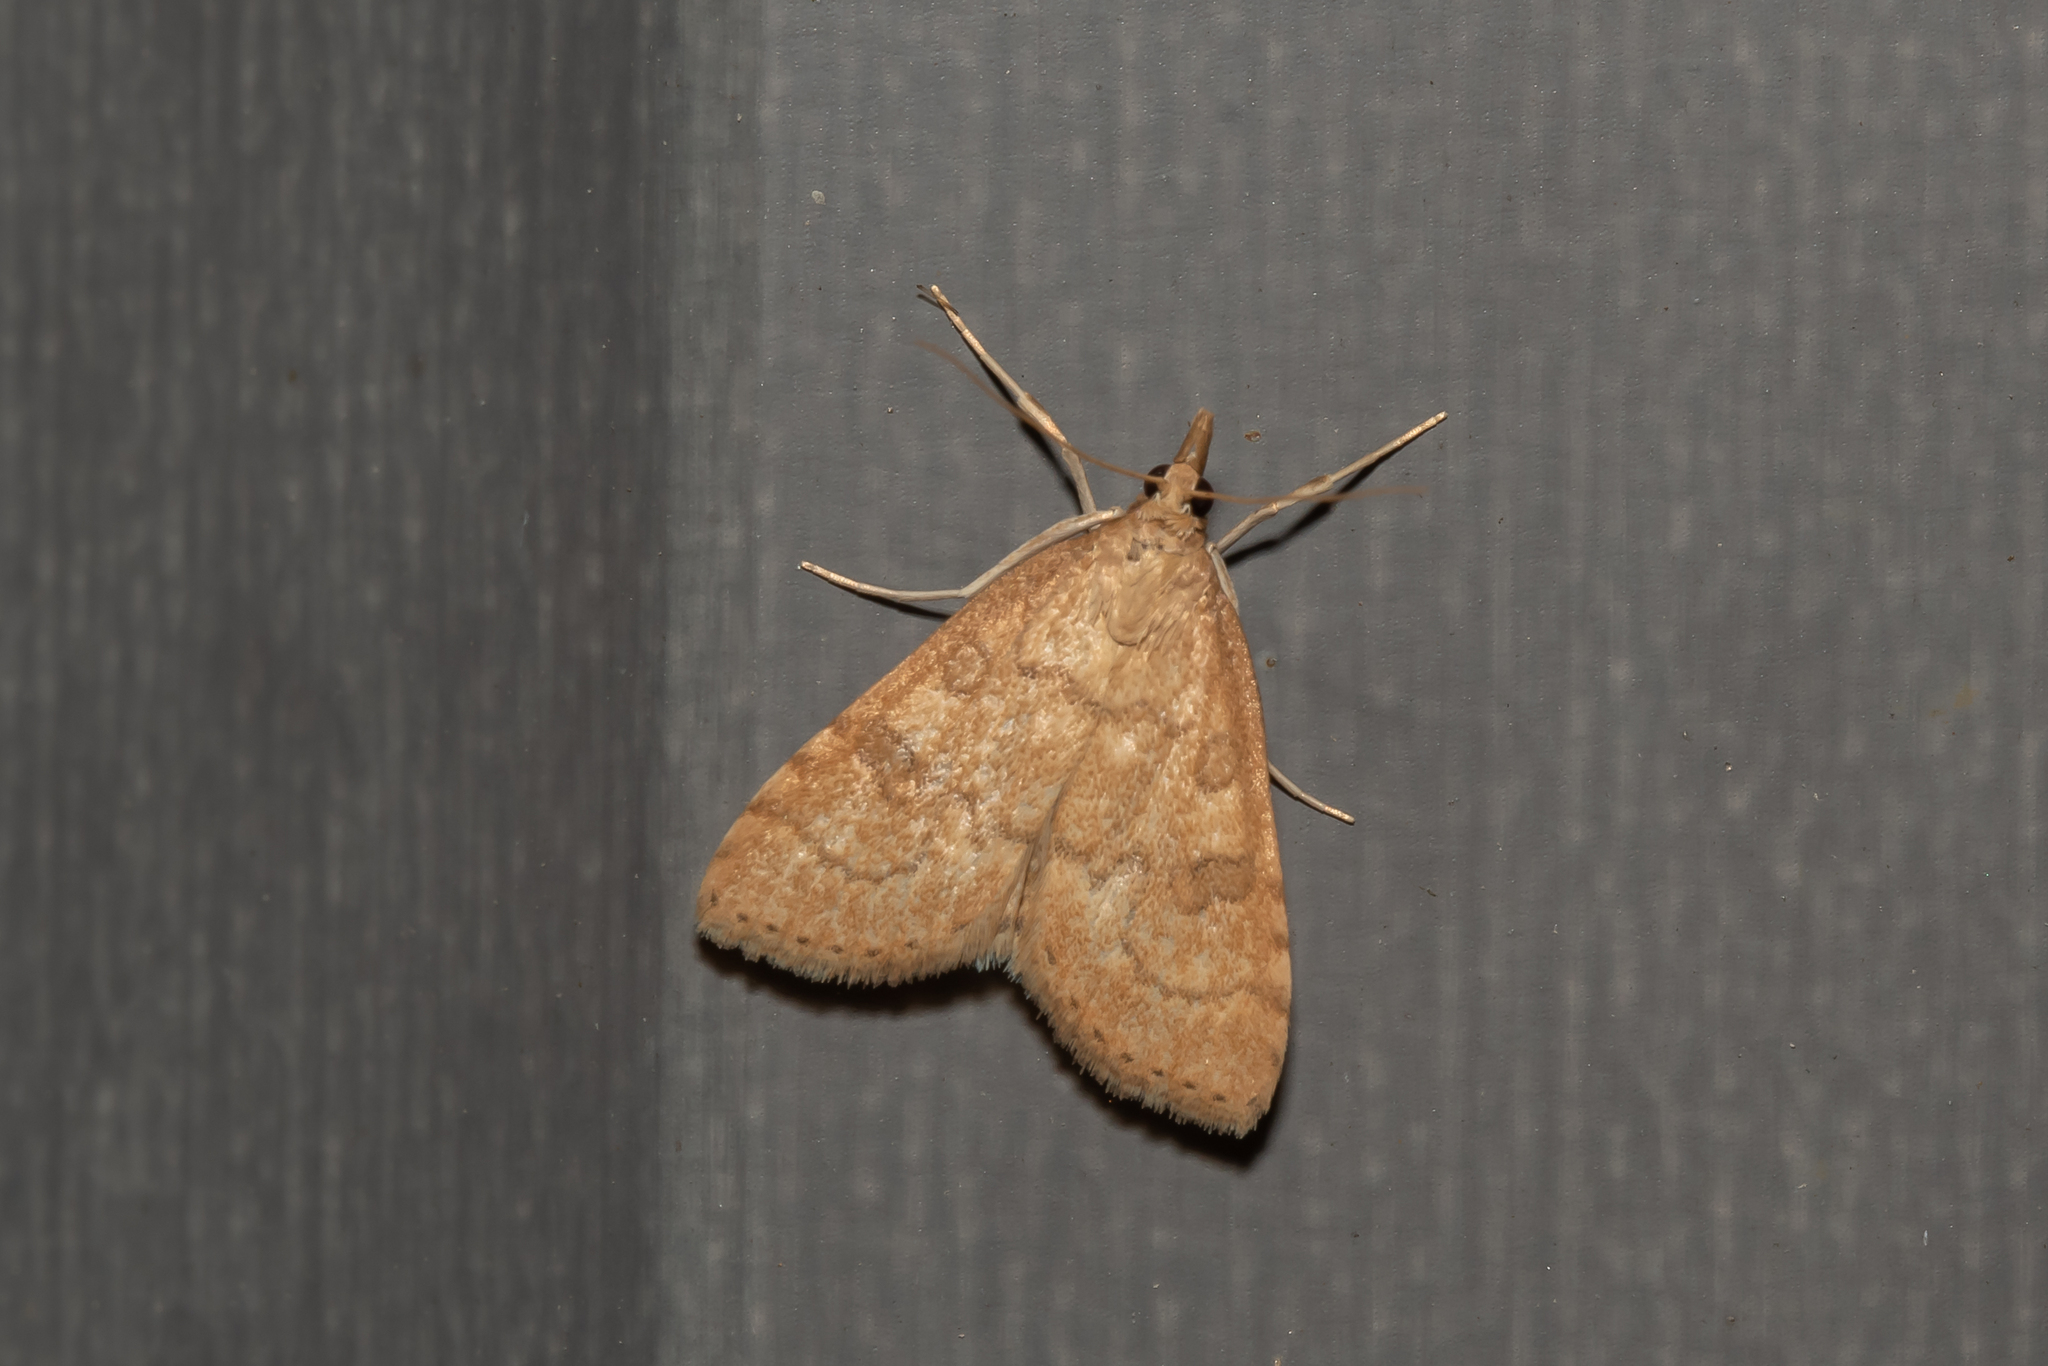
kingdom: Animalia
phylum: Arthropoda
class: Insecta
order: Lepidoptera
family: Crambidae
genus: Udea
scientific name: Udea fulvalis
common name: Fulvous pearl
